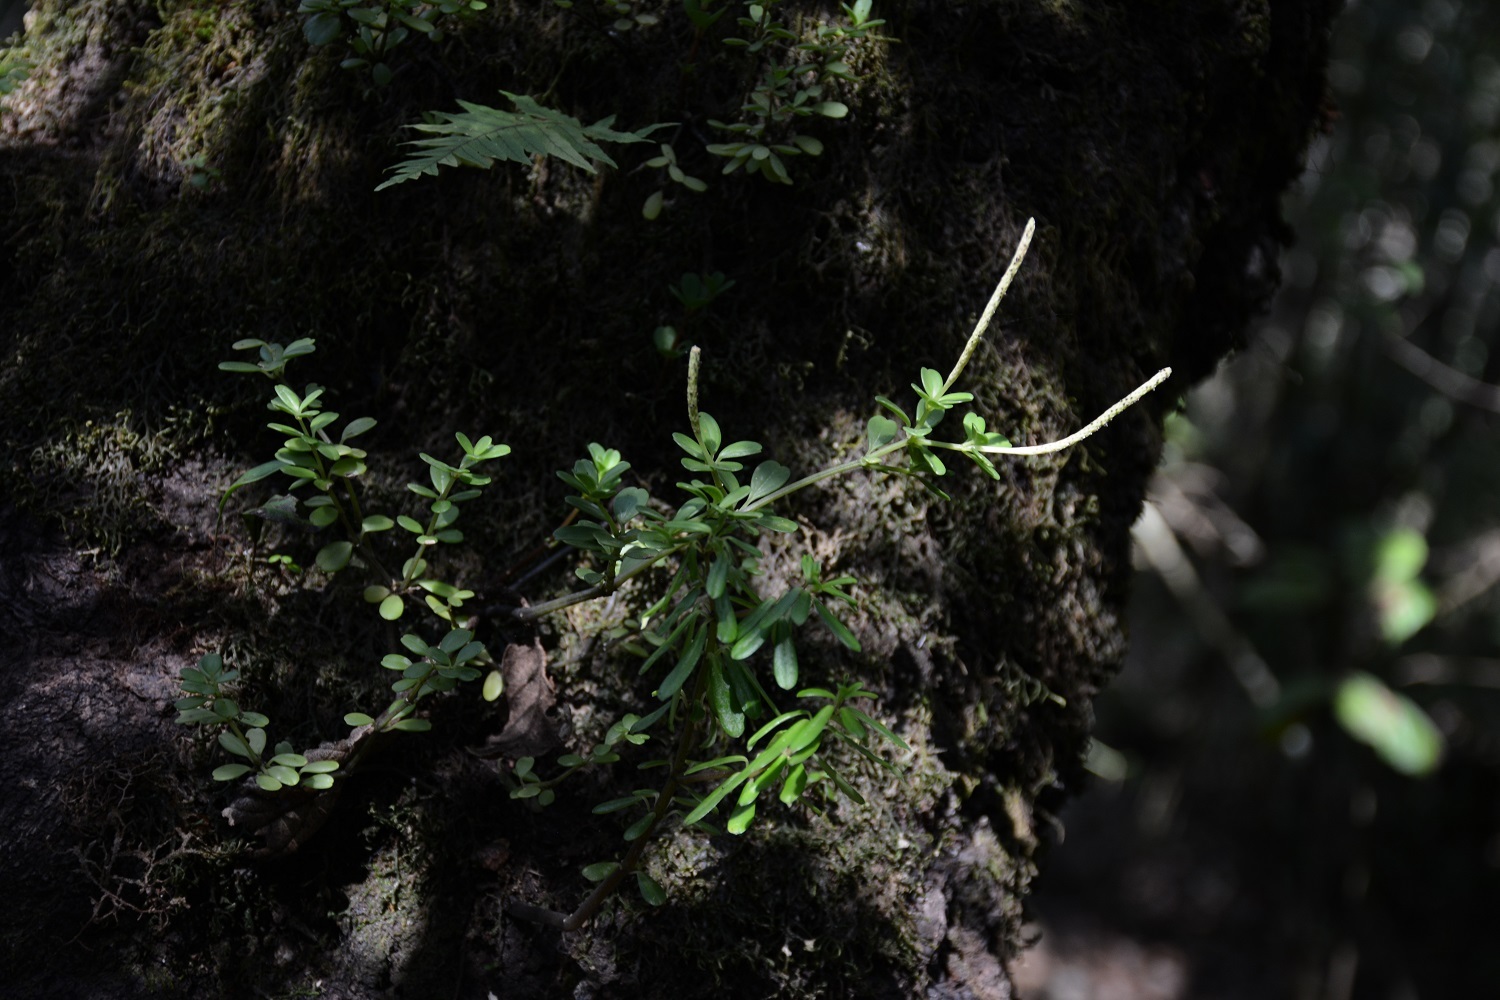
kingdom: Plantae
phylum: Tracheophyta
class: Magnoliopsida
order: Piperales
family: Piperaceae
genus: Peperomia
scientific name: Peperomia leptophylla
